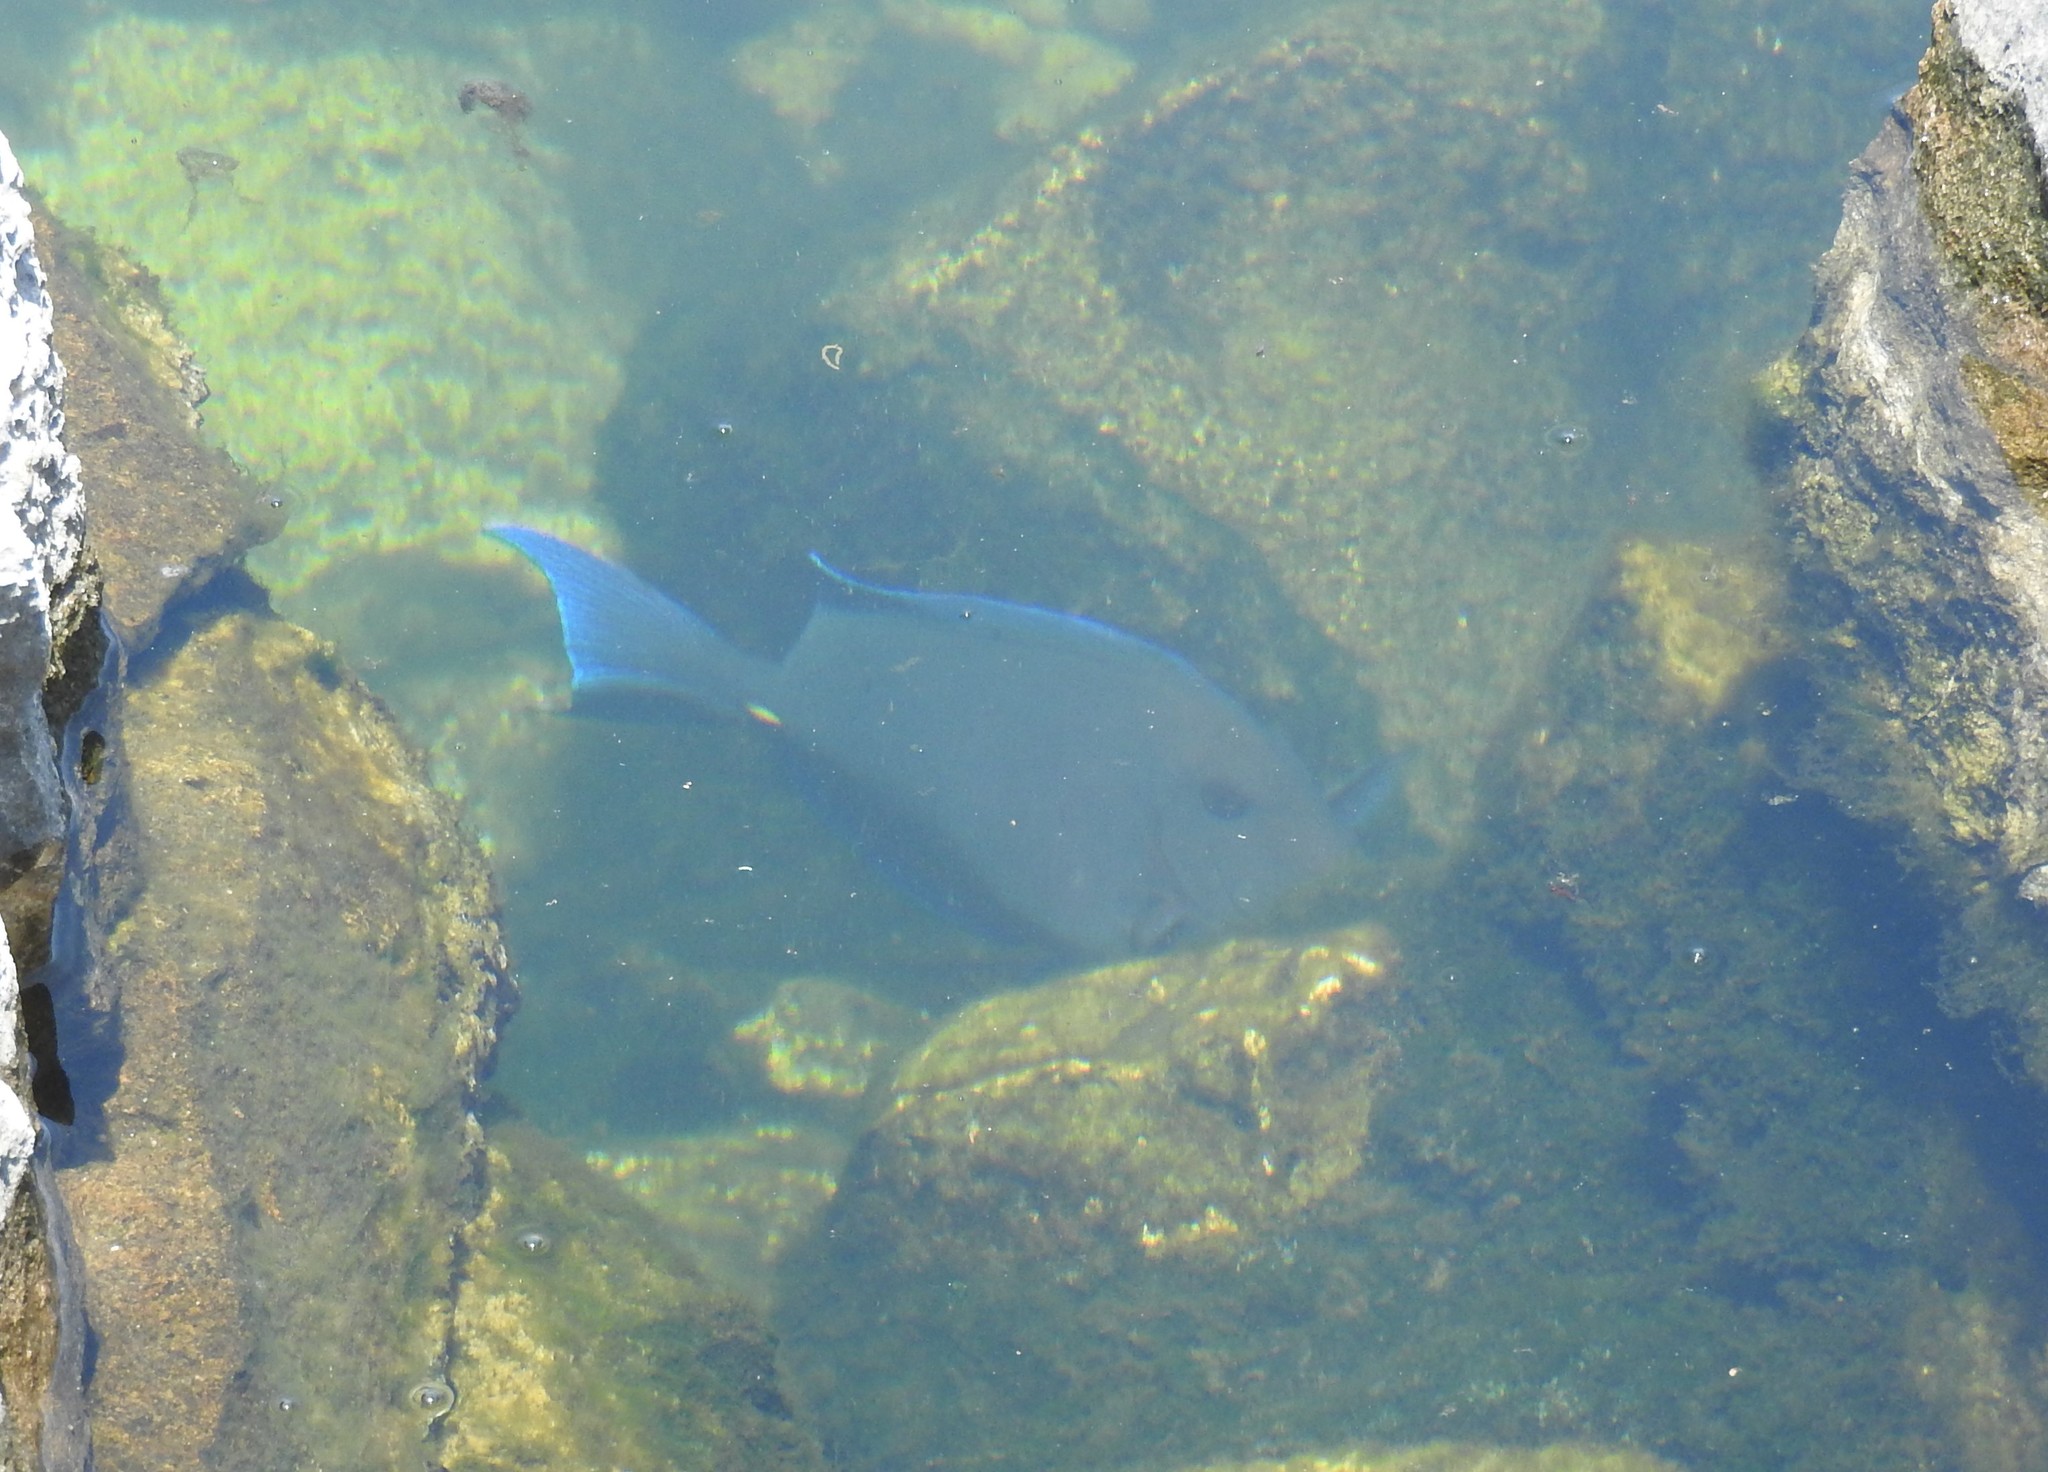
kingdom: Animalia
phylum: Chordata
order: Perciformes
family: Acanthuridae
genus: Acanthurus
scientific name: Acanthurus coeruleus
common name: Blue tang
